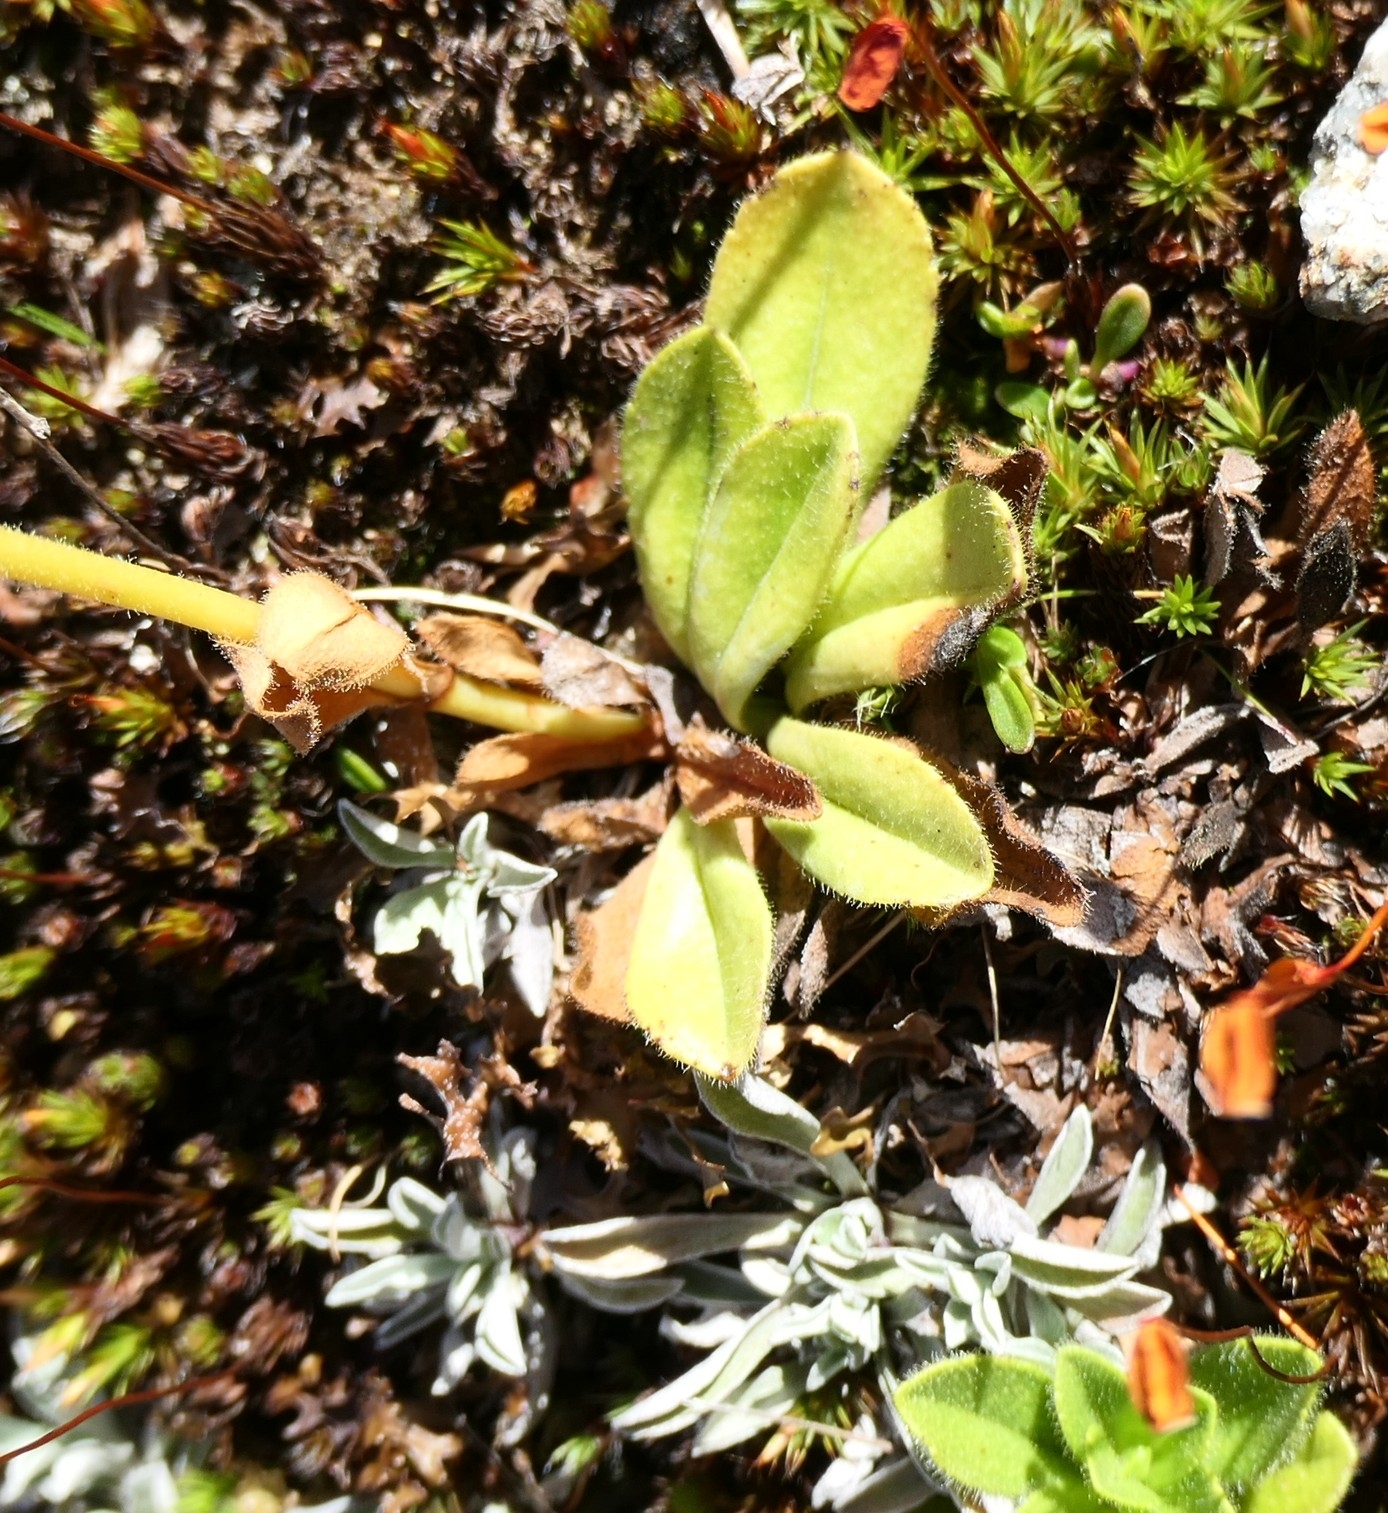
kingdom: Plantae
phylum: Tracheophyta
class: Magnoliopsida
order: Lamiales
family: Plantaginaceae
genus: Veronica
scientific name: Veronica bellidioides
